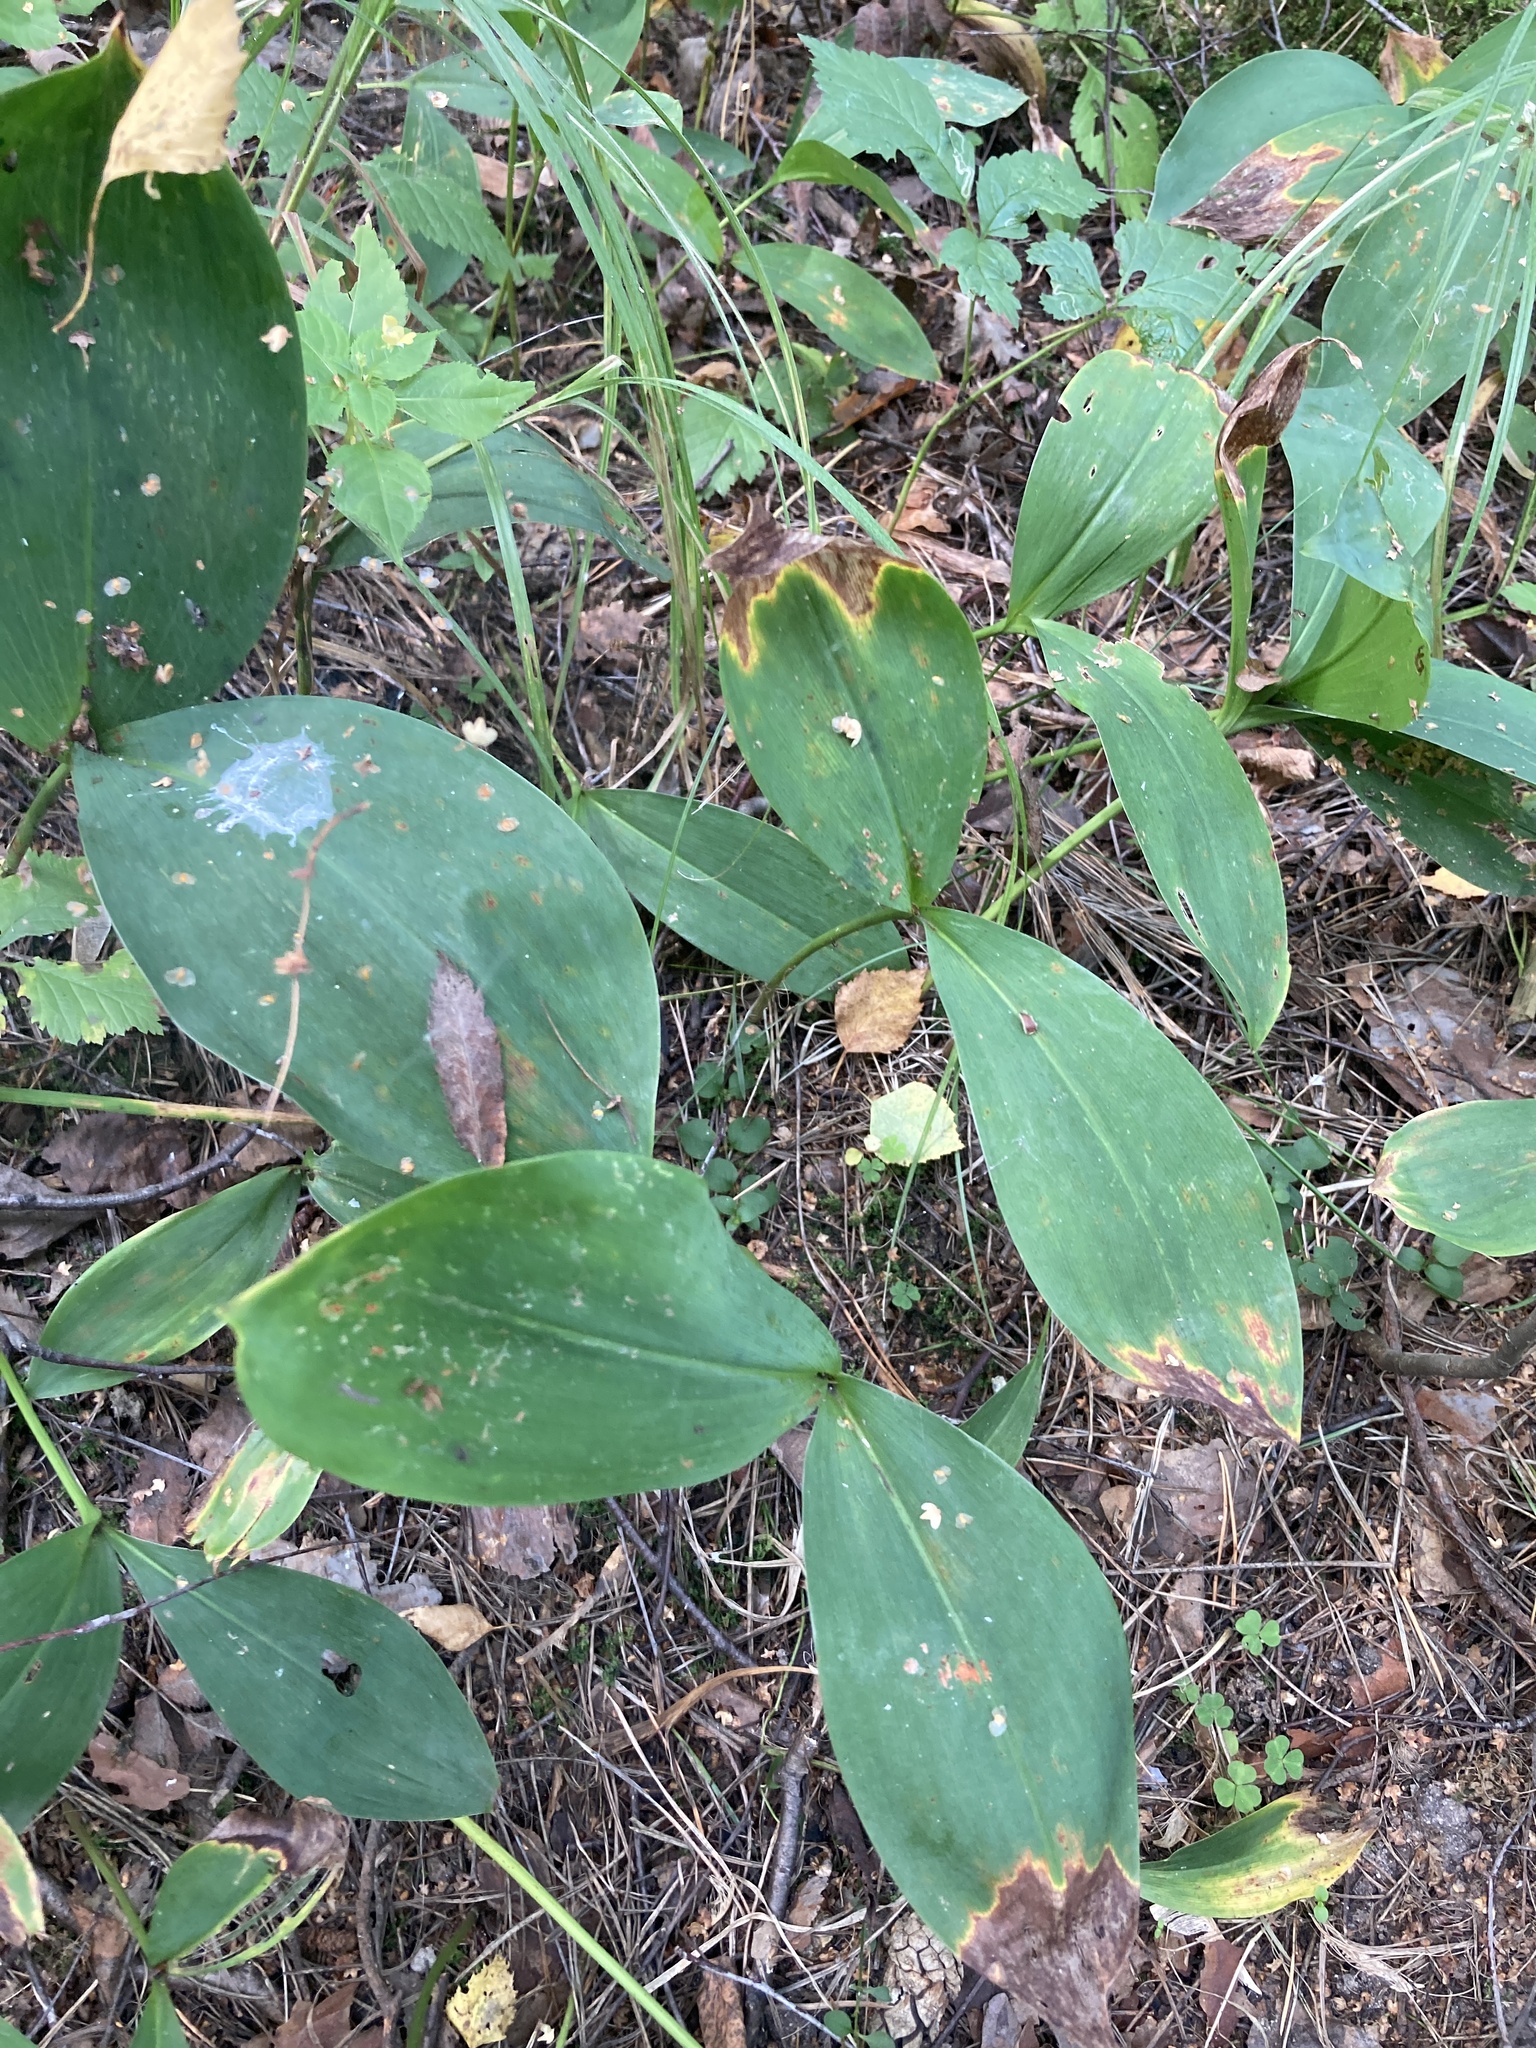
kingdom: Plantae
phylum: Tracheophyta
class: Liliopsida
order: Asparagales
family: Asparagaceae
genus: Convallaria
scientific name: Convallaria majalis
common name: Lily-of-the-valley
